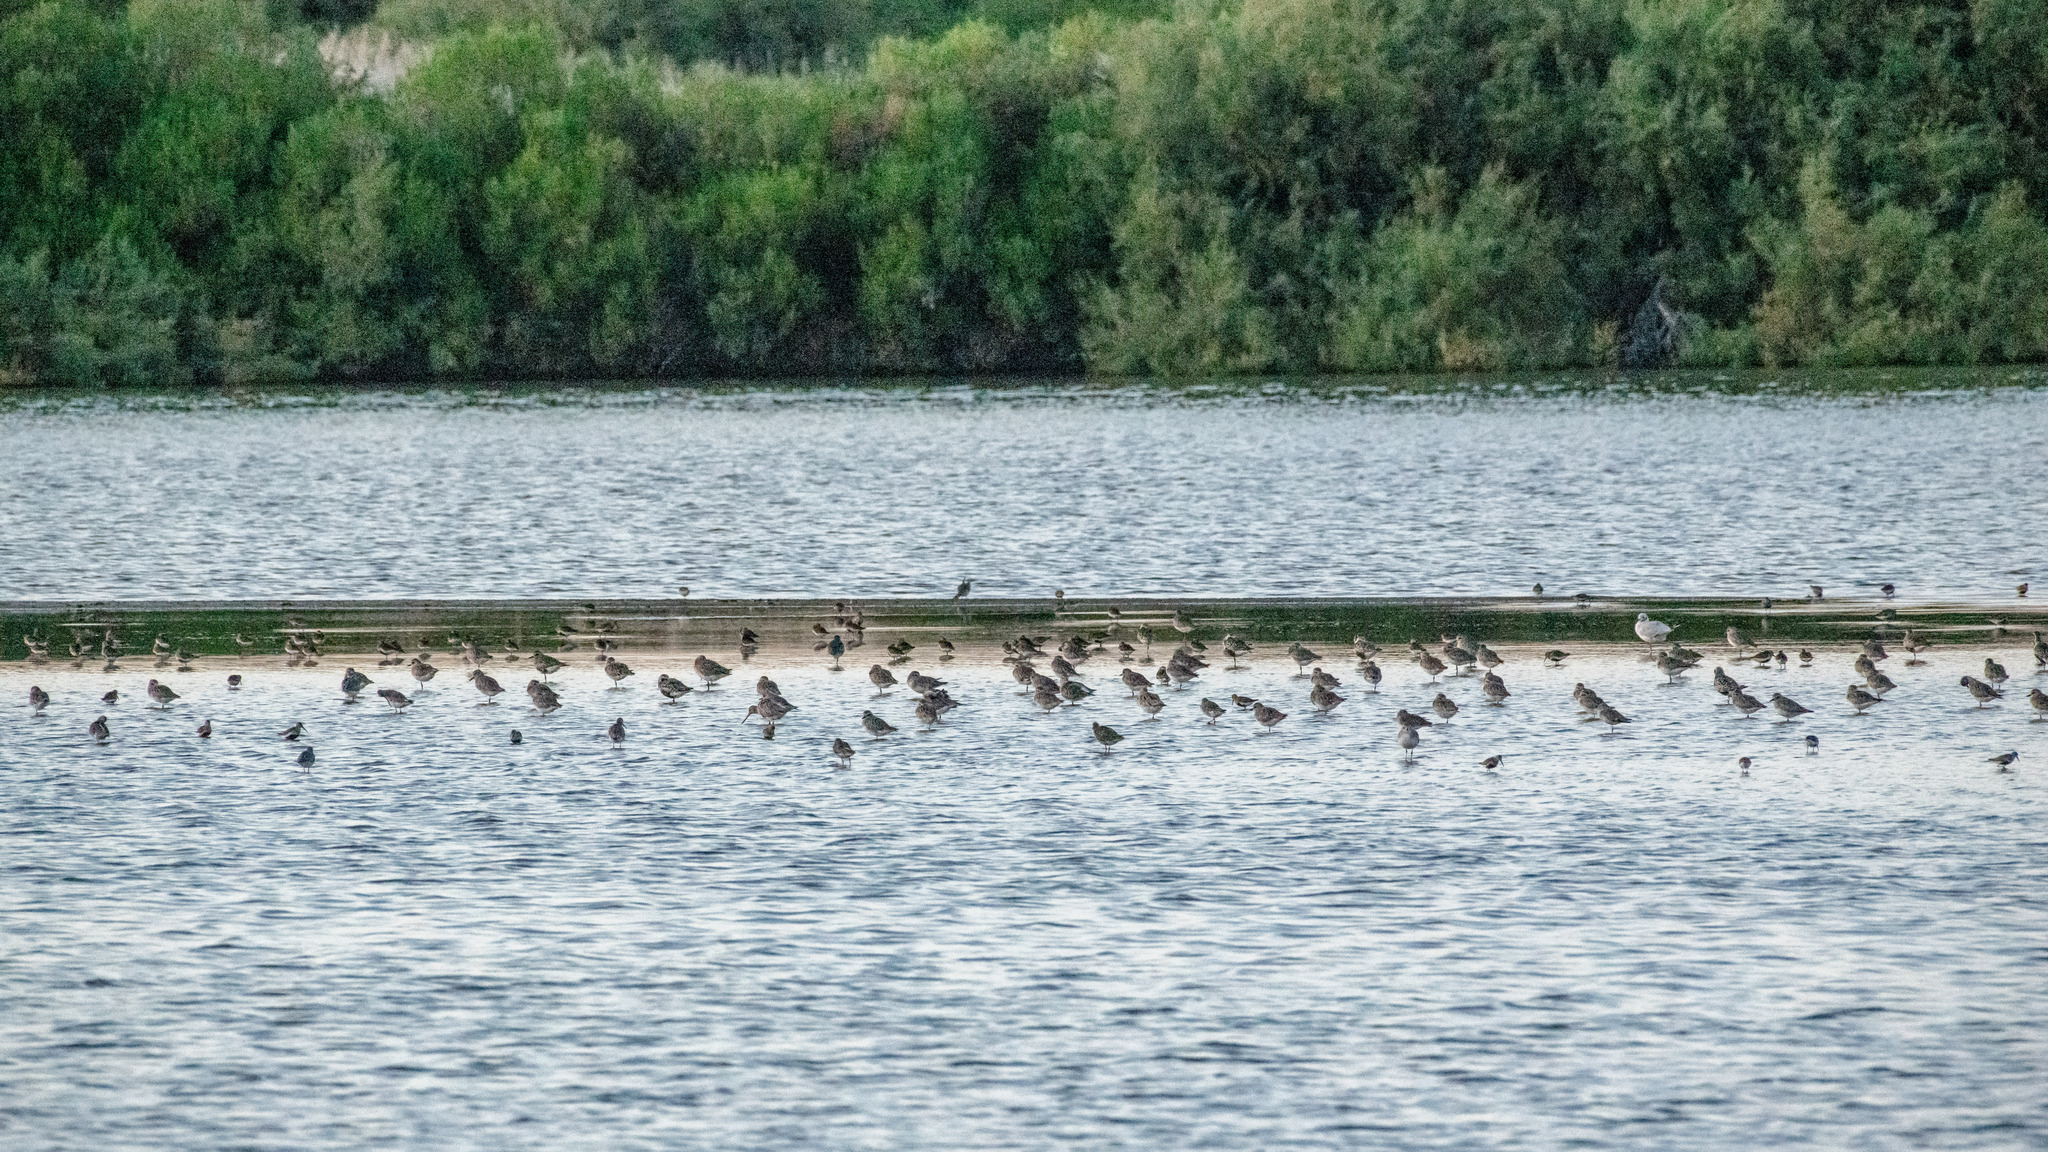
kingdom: Animalia
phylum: Chordata
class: Aves
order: Charadriiformes
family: Scolopacidae
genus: Limosa
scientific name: Limosa lapponica
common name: Bar-tailed godwit
